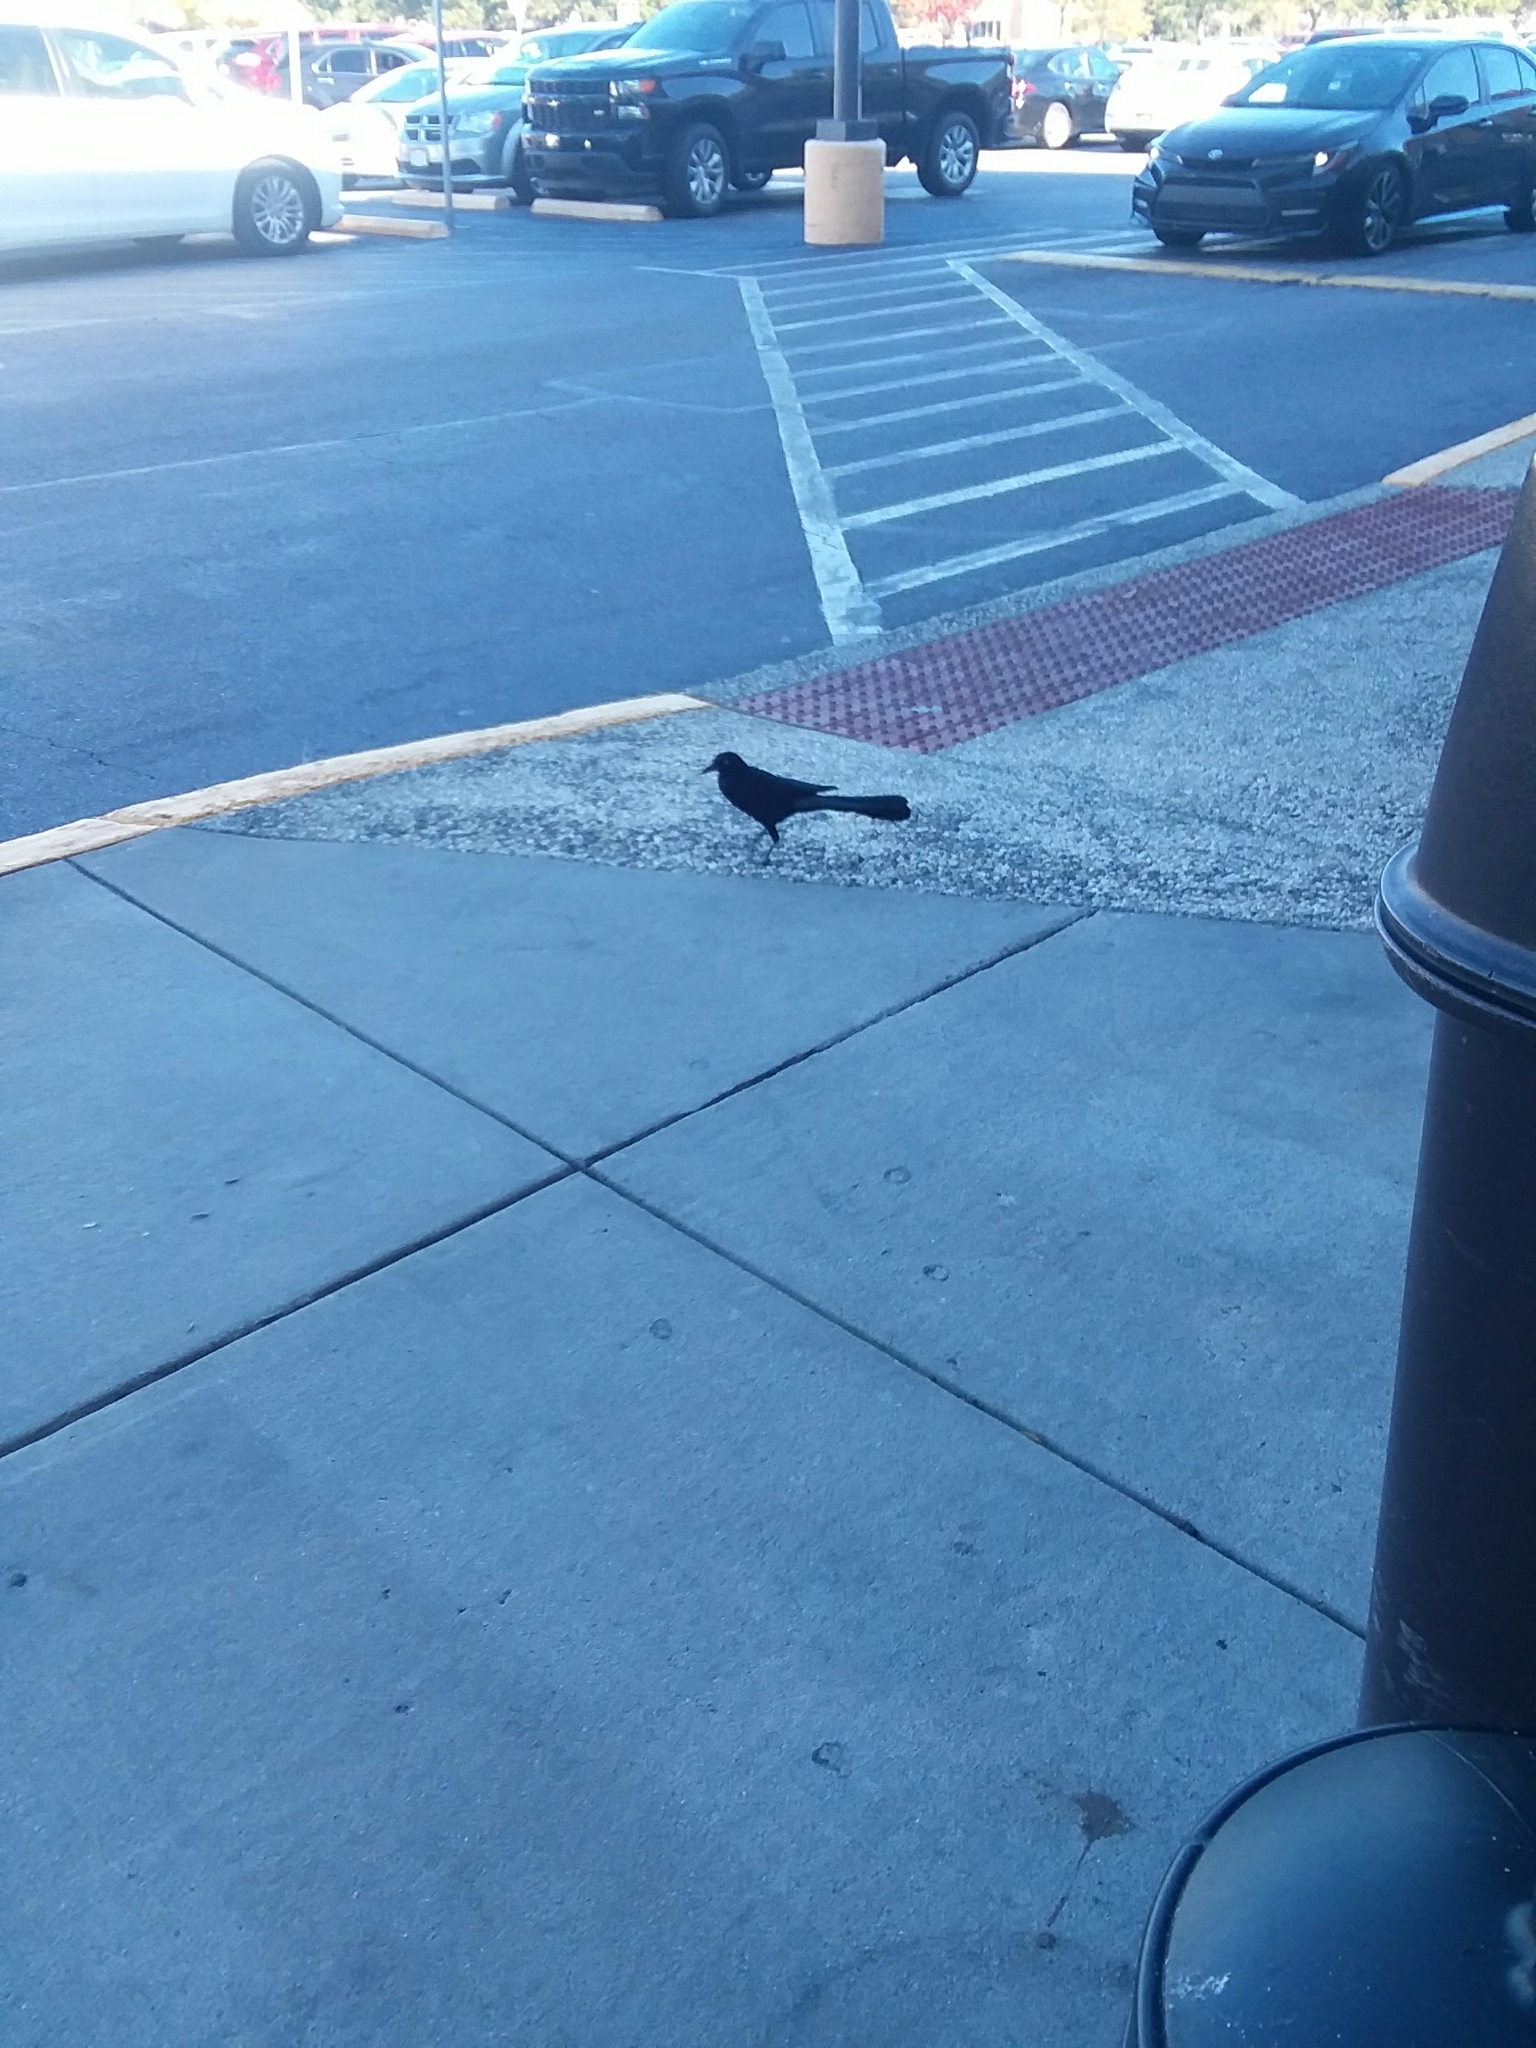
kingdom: Animalia
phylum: Chordata
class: Aves
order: Passeriformes
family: Icteridae
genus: Quiscalus
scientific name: Quiscalus major
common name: Boat-tailed grackle
